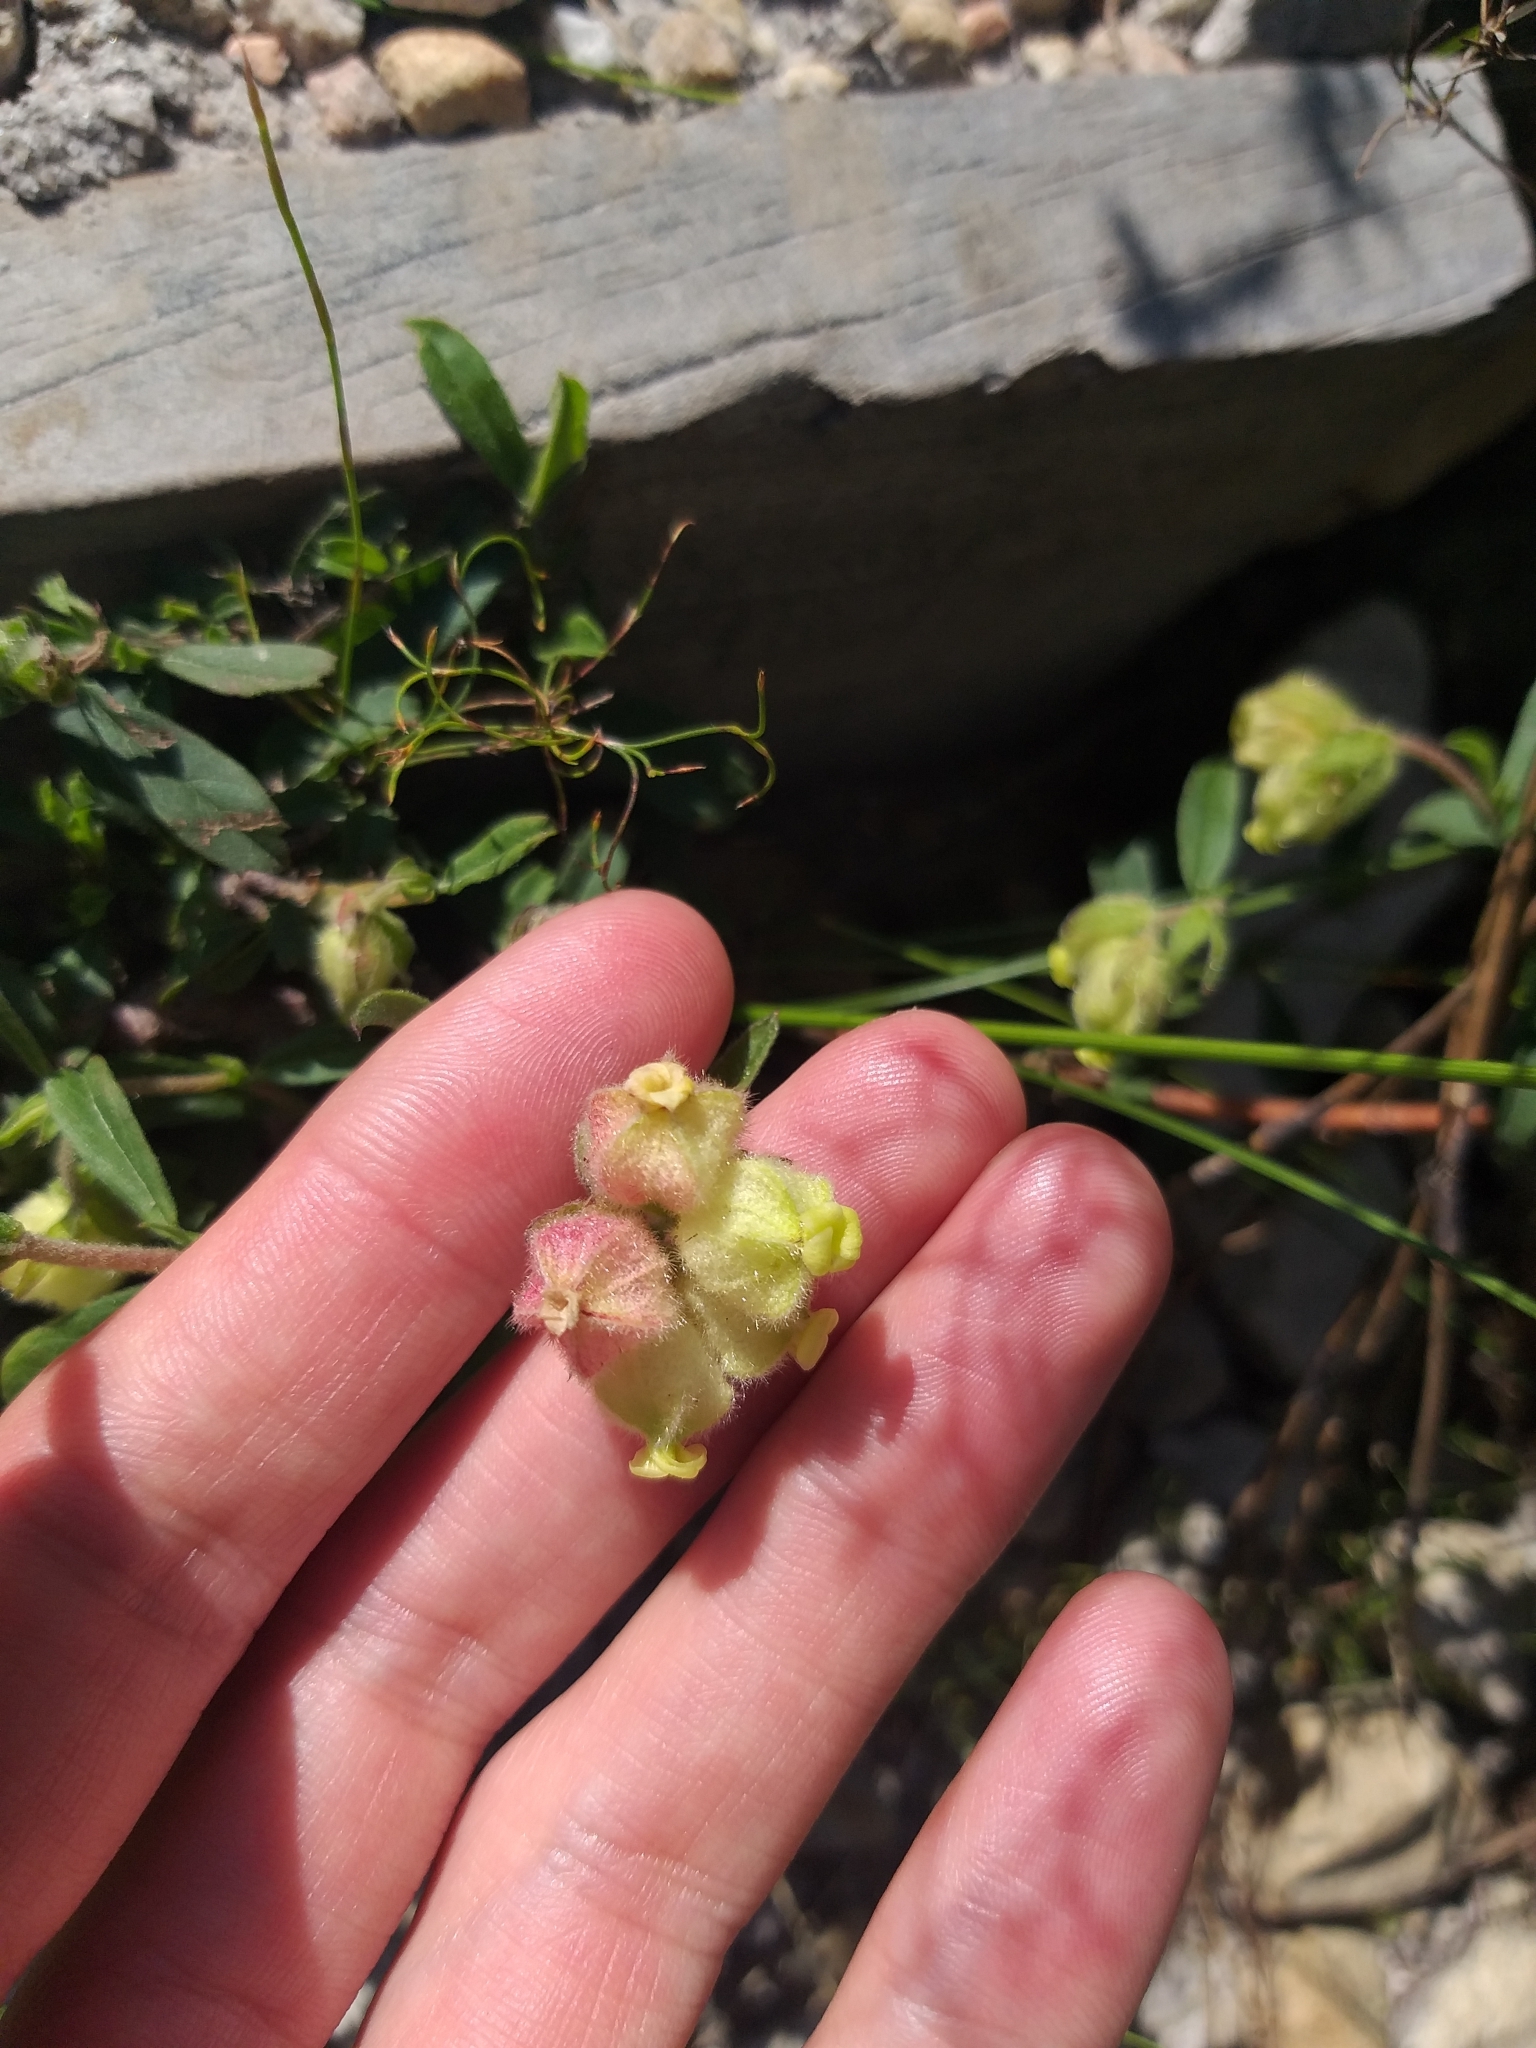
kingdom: Plantae
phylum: Tracheophyta
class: Magnoliopsida
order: Malvales
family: Malvaceae
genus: Hermannia
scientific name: Hermannia hyssopifolia
